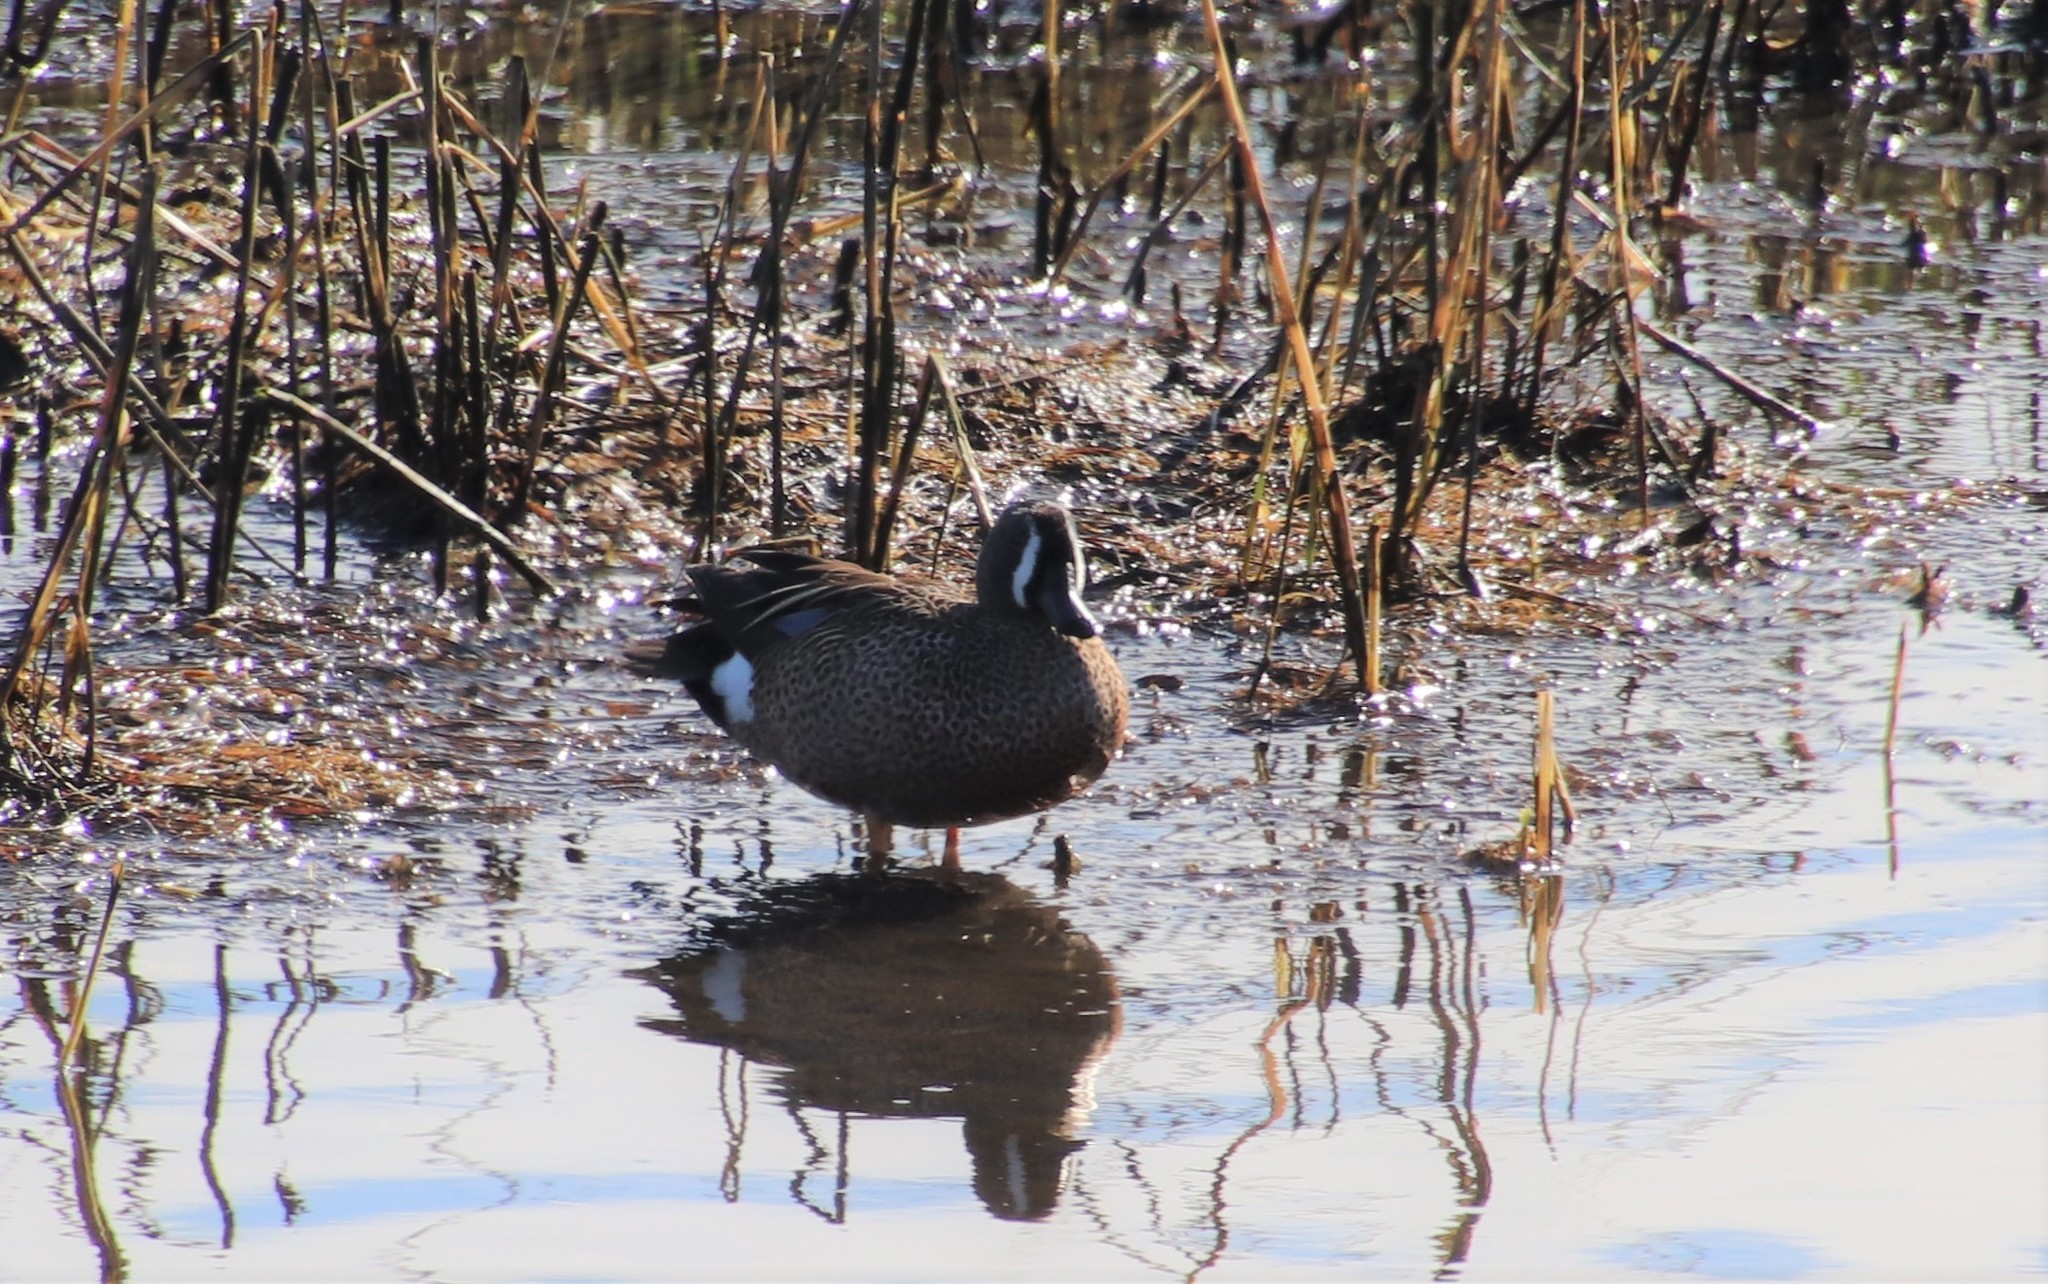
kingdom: Animalia
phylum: Chordata
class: Aves
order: Anseriformes
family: Anatidae
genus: Spatula
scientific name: Spatula discors
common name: Blue-winged teal
